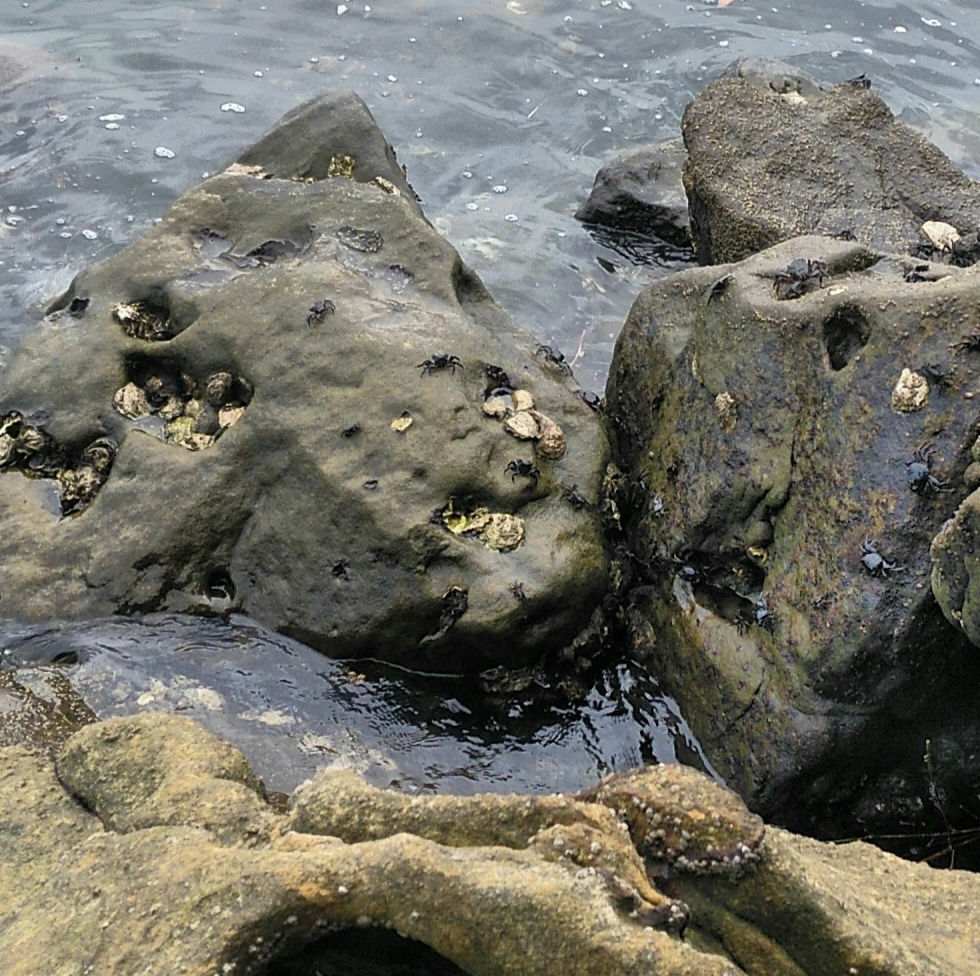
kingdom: Animalia
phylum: Arthropoda
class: Malacostraca
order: Decapoda
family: Grapsidae
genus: Pachygrapsus
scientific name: Pachygrapsus marmoratus
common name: Marbled rock crab
